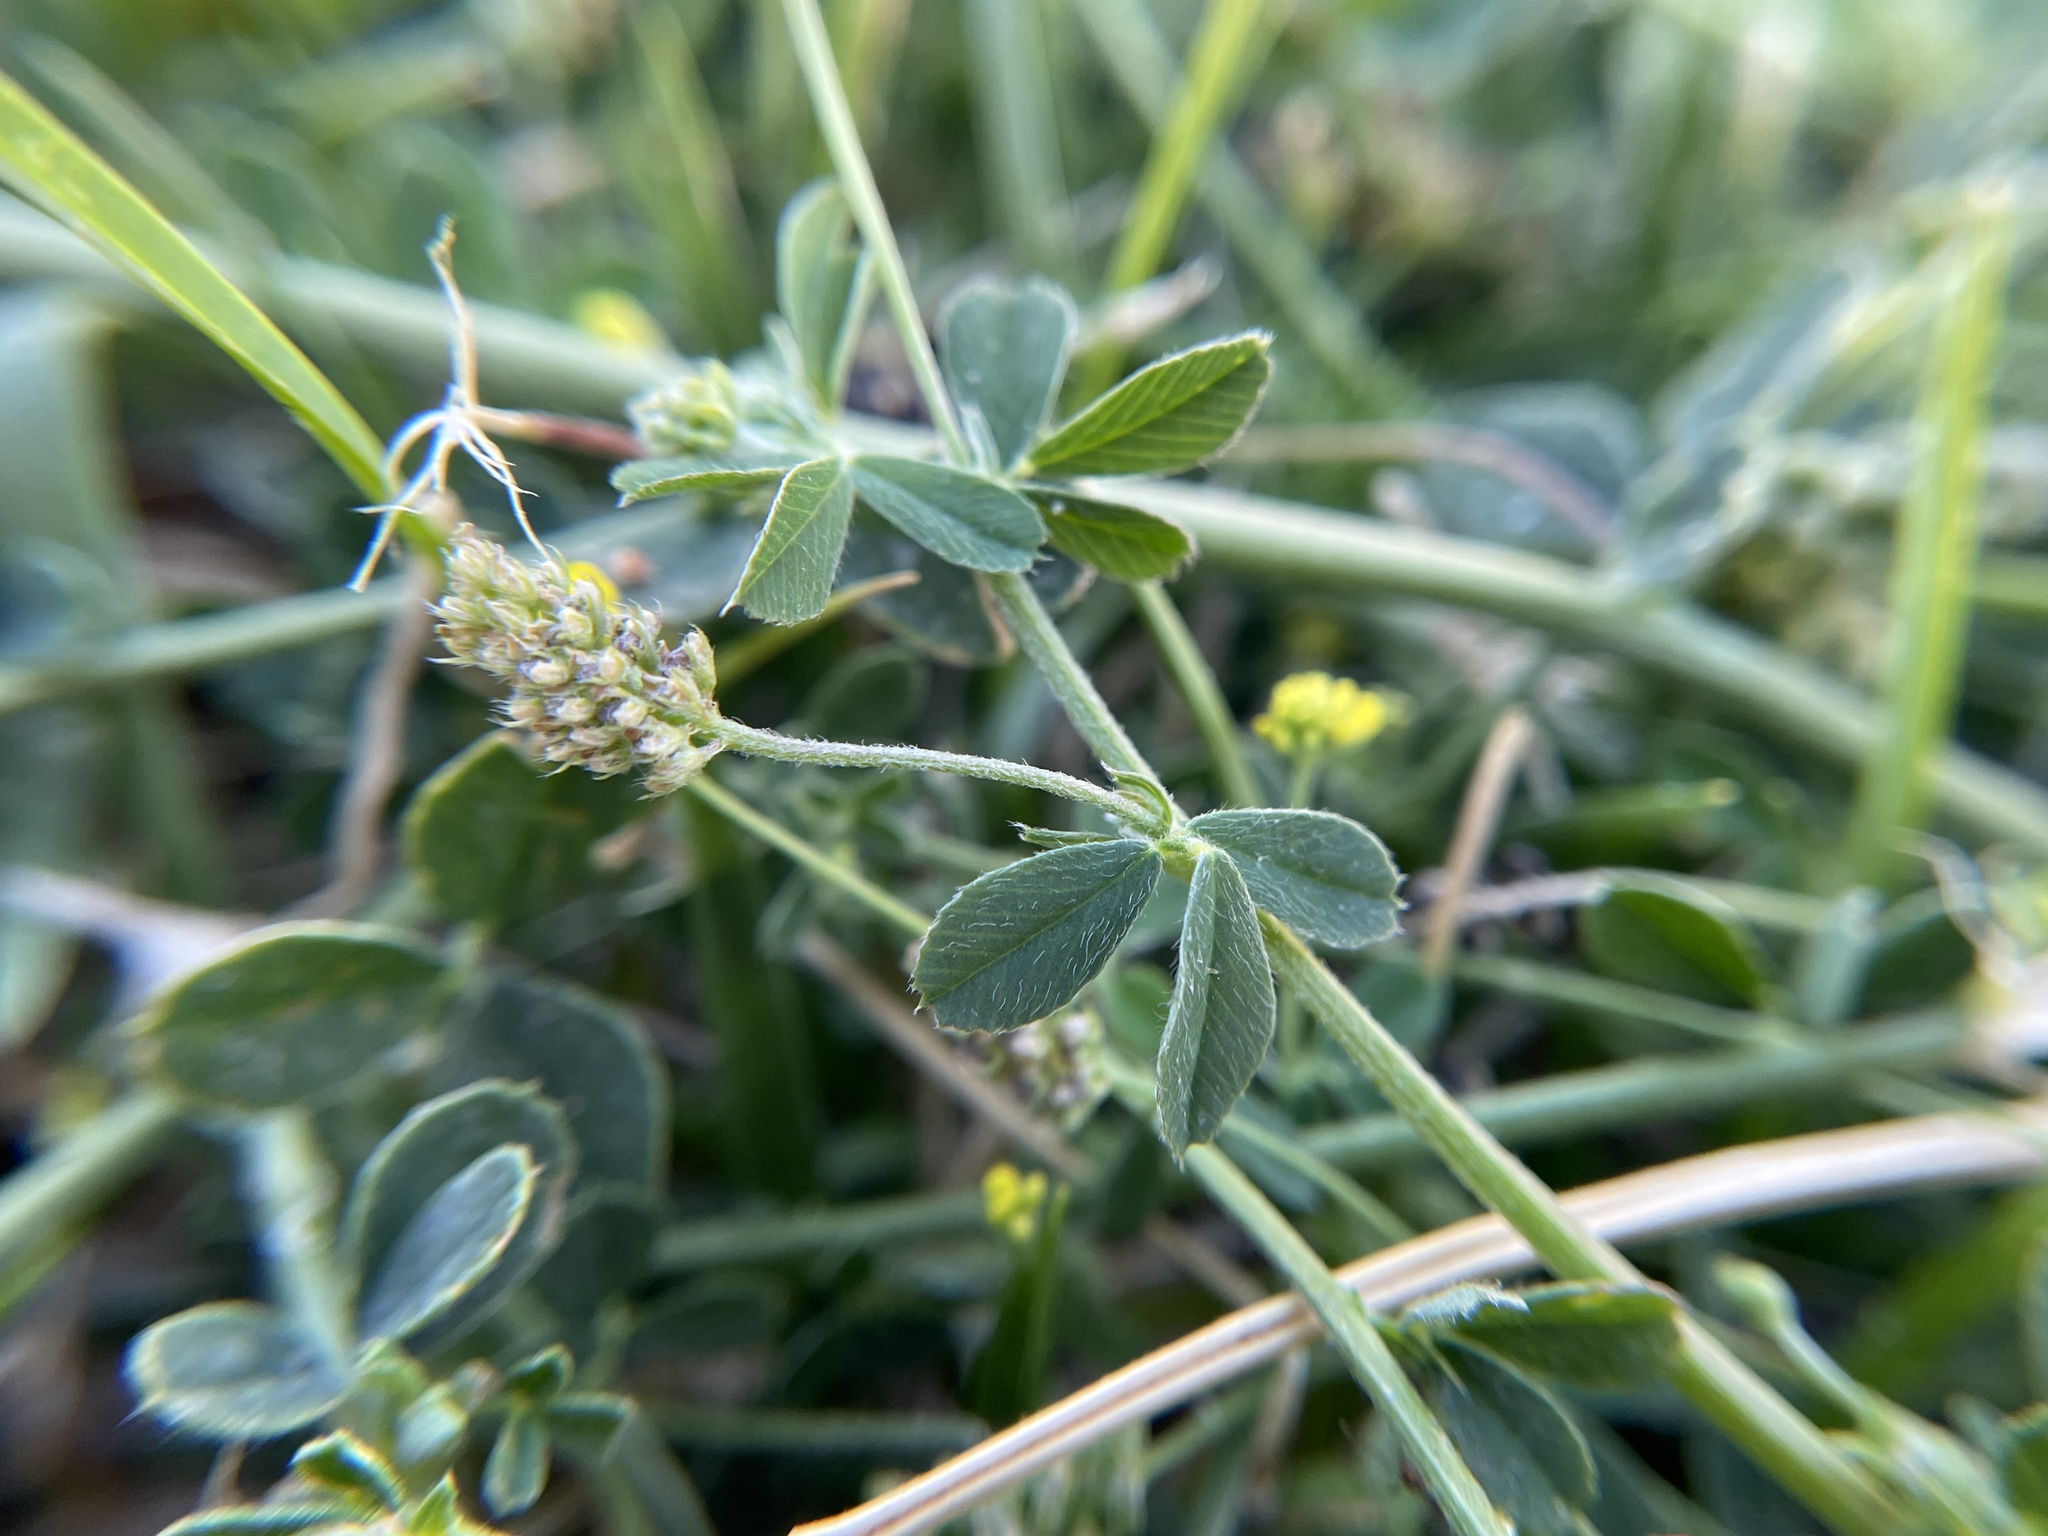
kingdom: Plantae
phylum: Tracheophyta
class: Magnoliopsida
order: Fabales
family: Fabaceae
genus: Medicago
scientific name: Medicago lupulina
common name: Black medick
